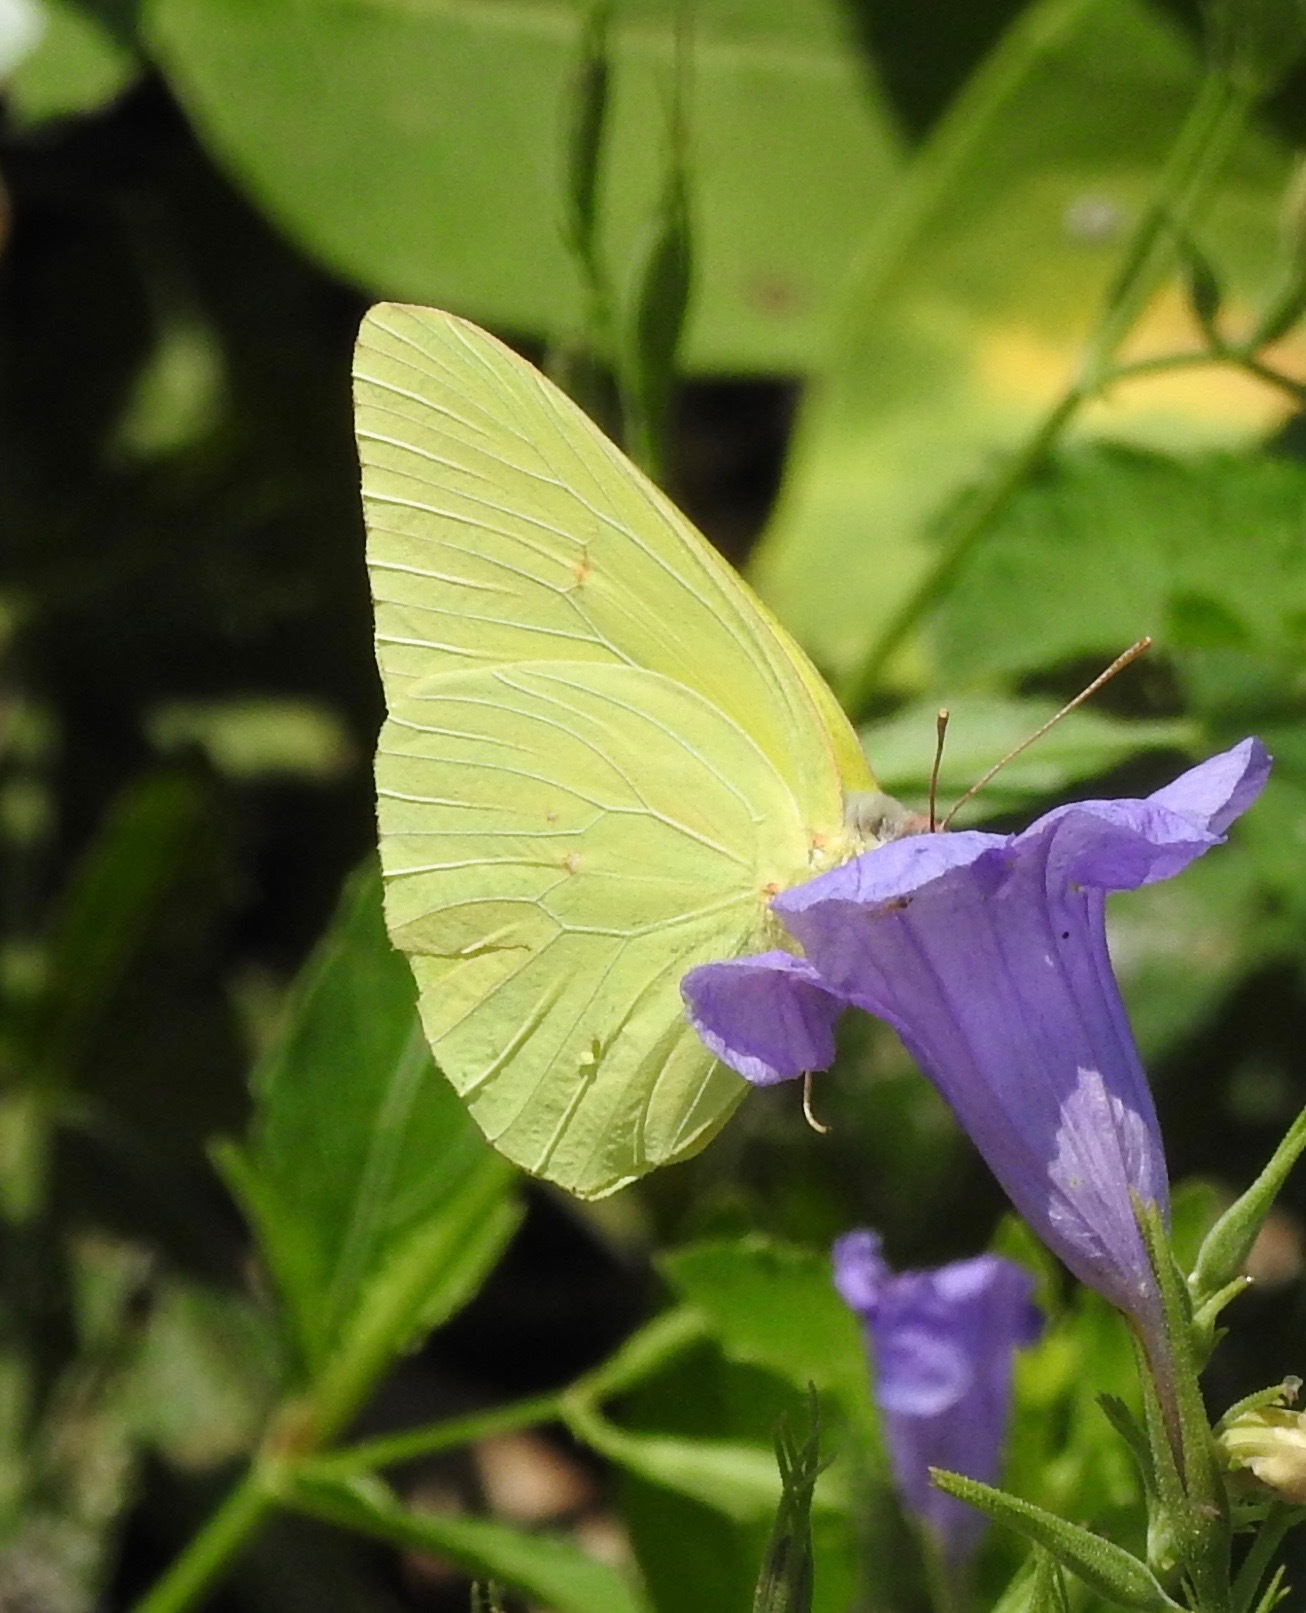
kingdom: Animalia
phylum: Arthropoda
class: Insecta
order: Lepidoptera
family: Pieridae
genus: Phoebis
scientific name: Phoebis sennae
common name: Cloudless sulphur
